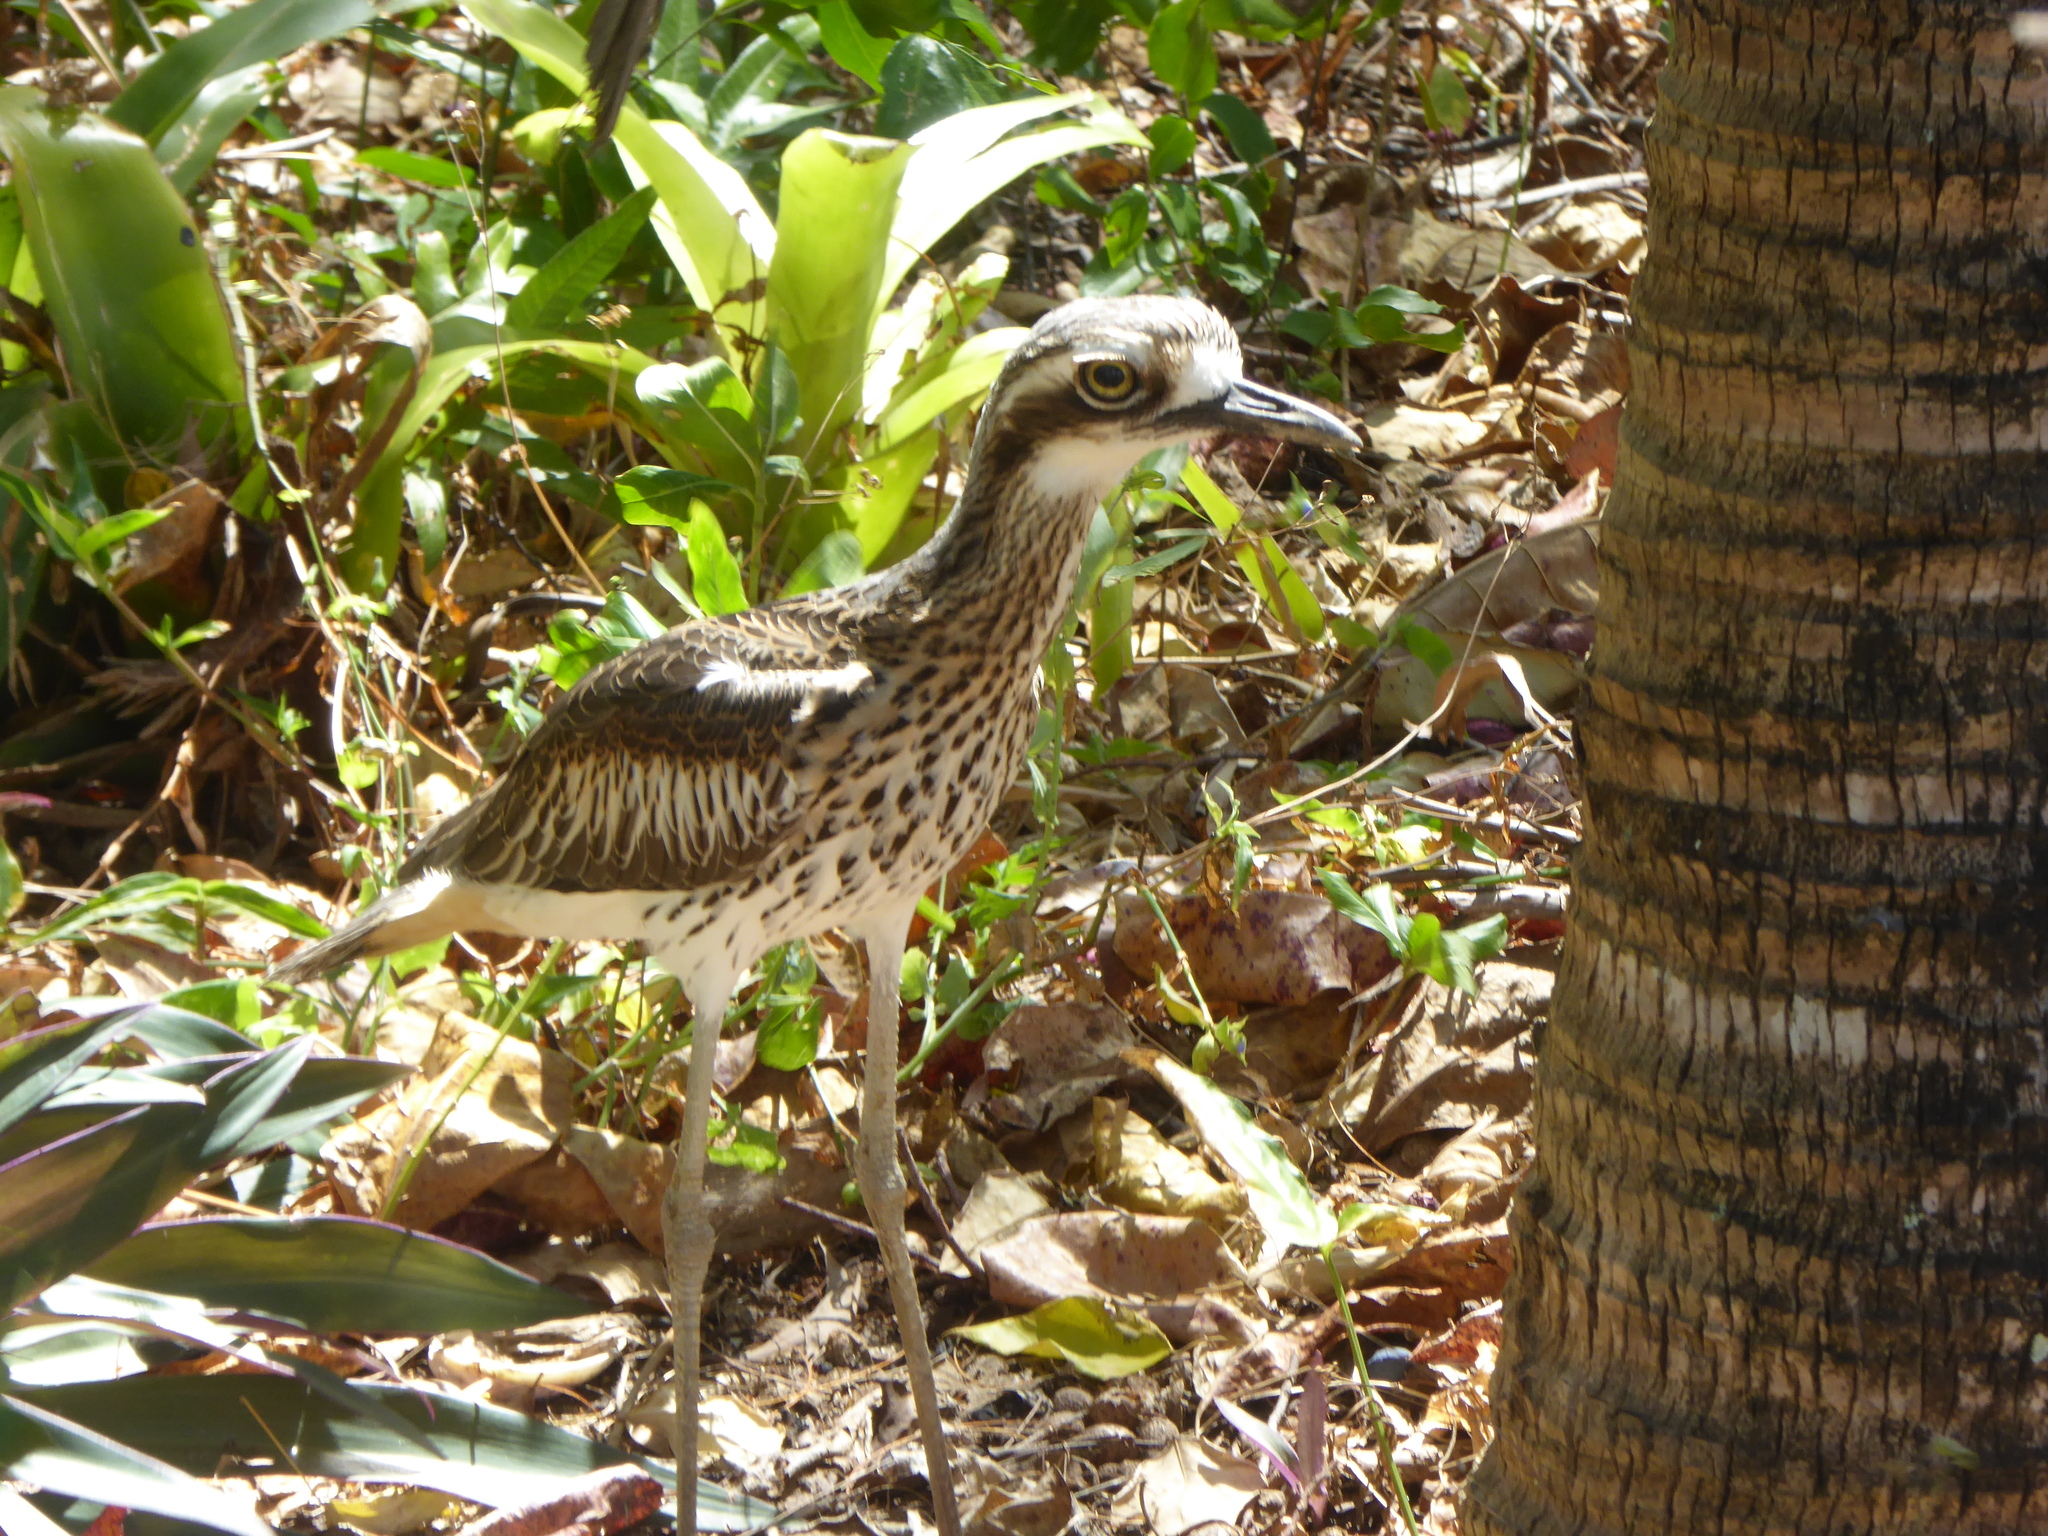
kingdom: Animalia
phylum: Chordata
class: Aves
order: Charadriiformes
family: Burhinidae
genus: Burhinus
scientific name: Burhinus grallarius
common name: Bush stone-curlew
